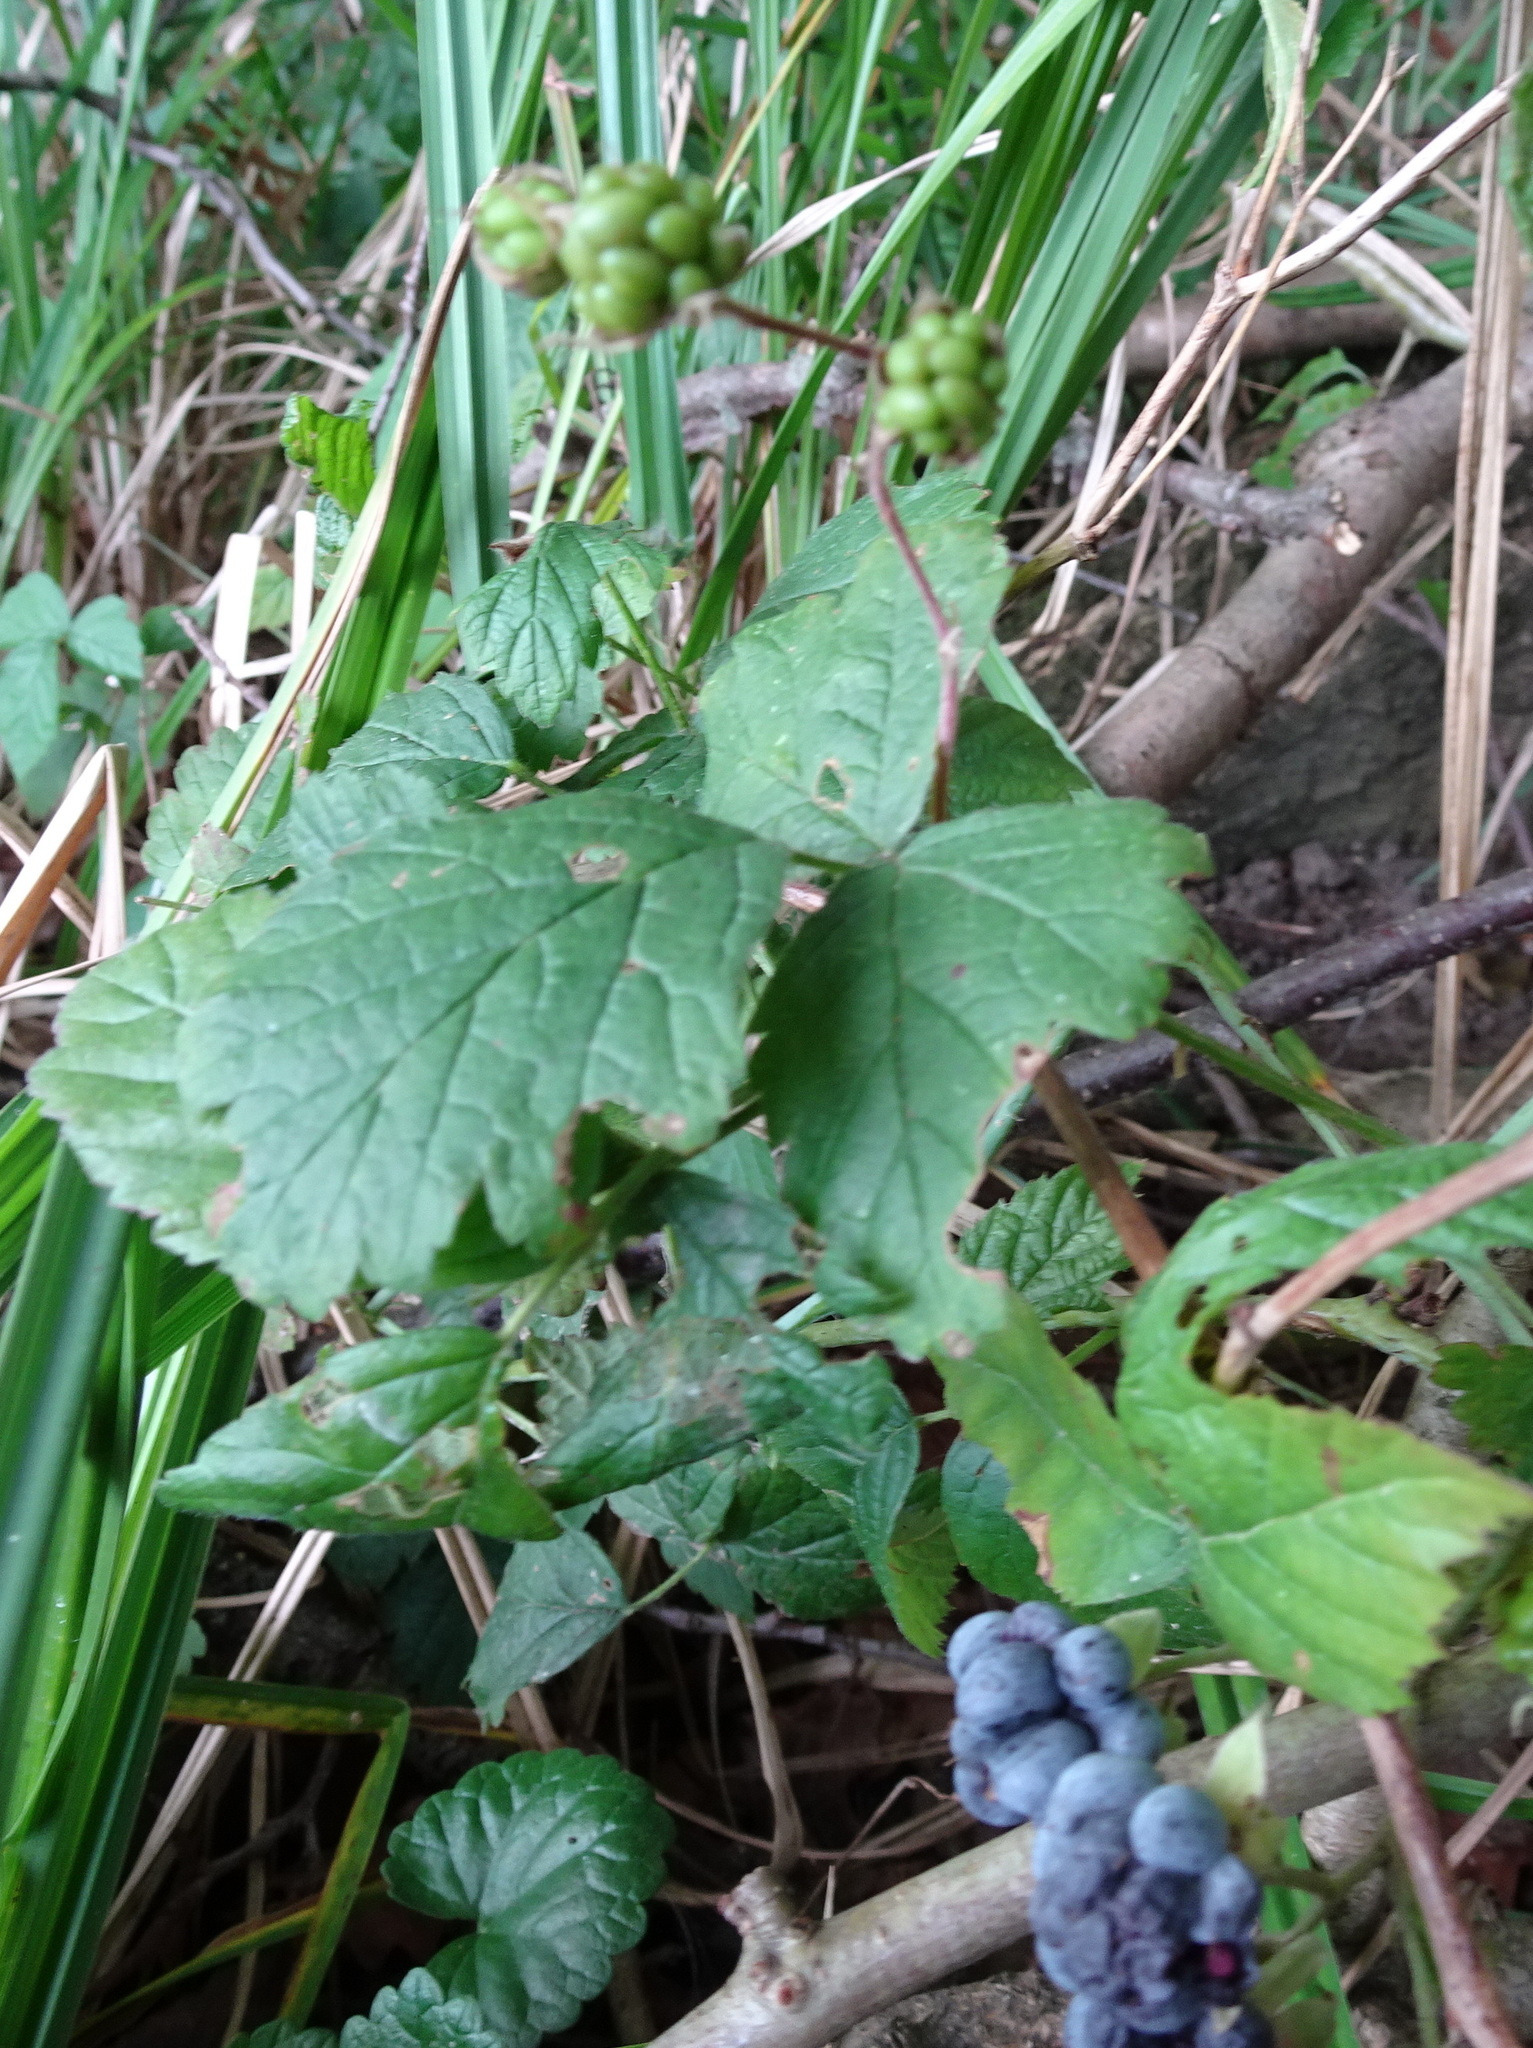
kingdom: Plantae
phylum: Tracheophyta
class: Magnoliopsida
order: Rosales
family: Rosaceae
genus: Rubus
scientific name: Rubus caesius
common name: Dewberry
